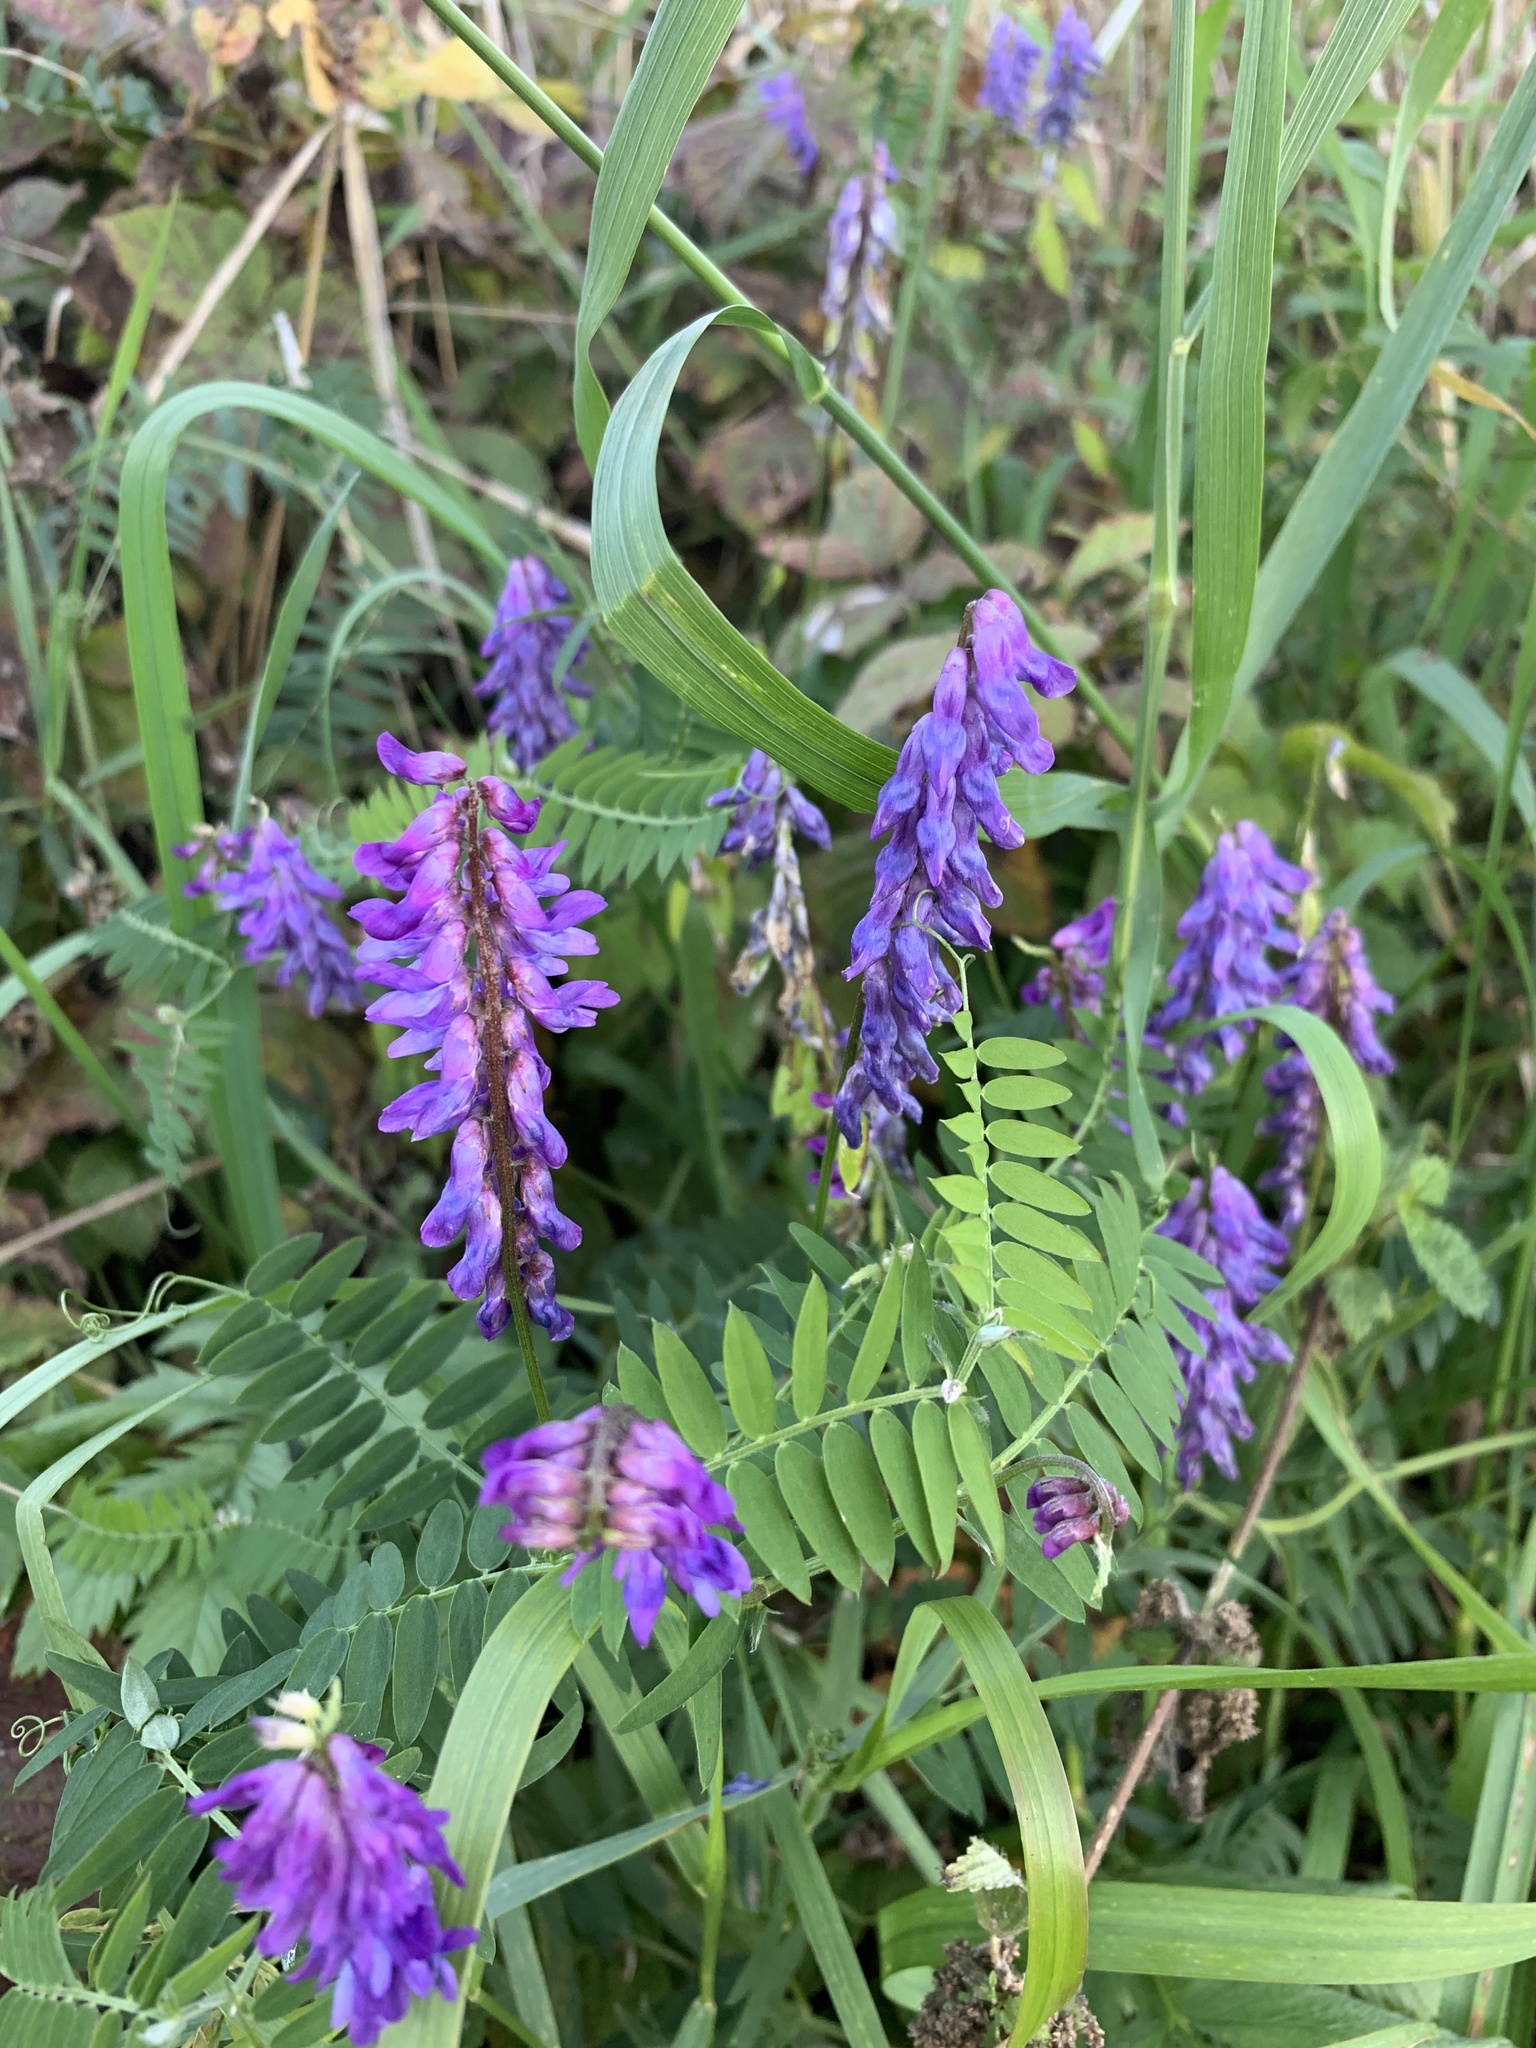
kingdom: Plantae
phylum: Tracheophyta
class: Magnoliopsida
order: Fabales
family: Fabaceae
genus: Vicia
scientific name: Vicia cracca
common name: Bird vetch
